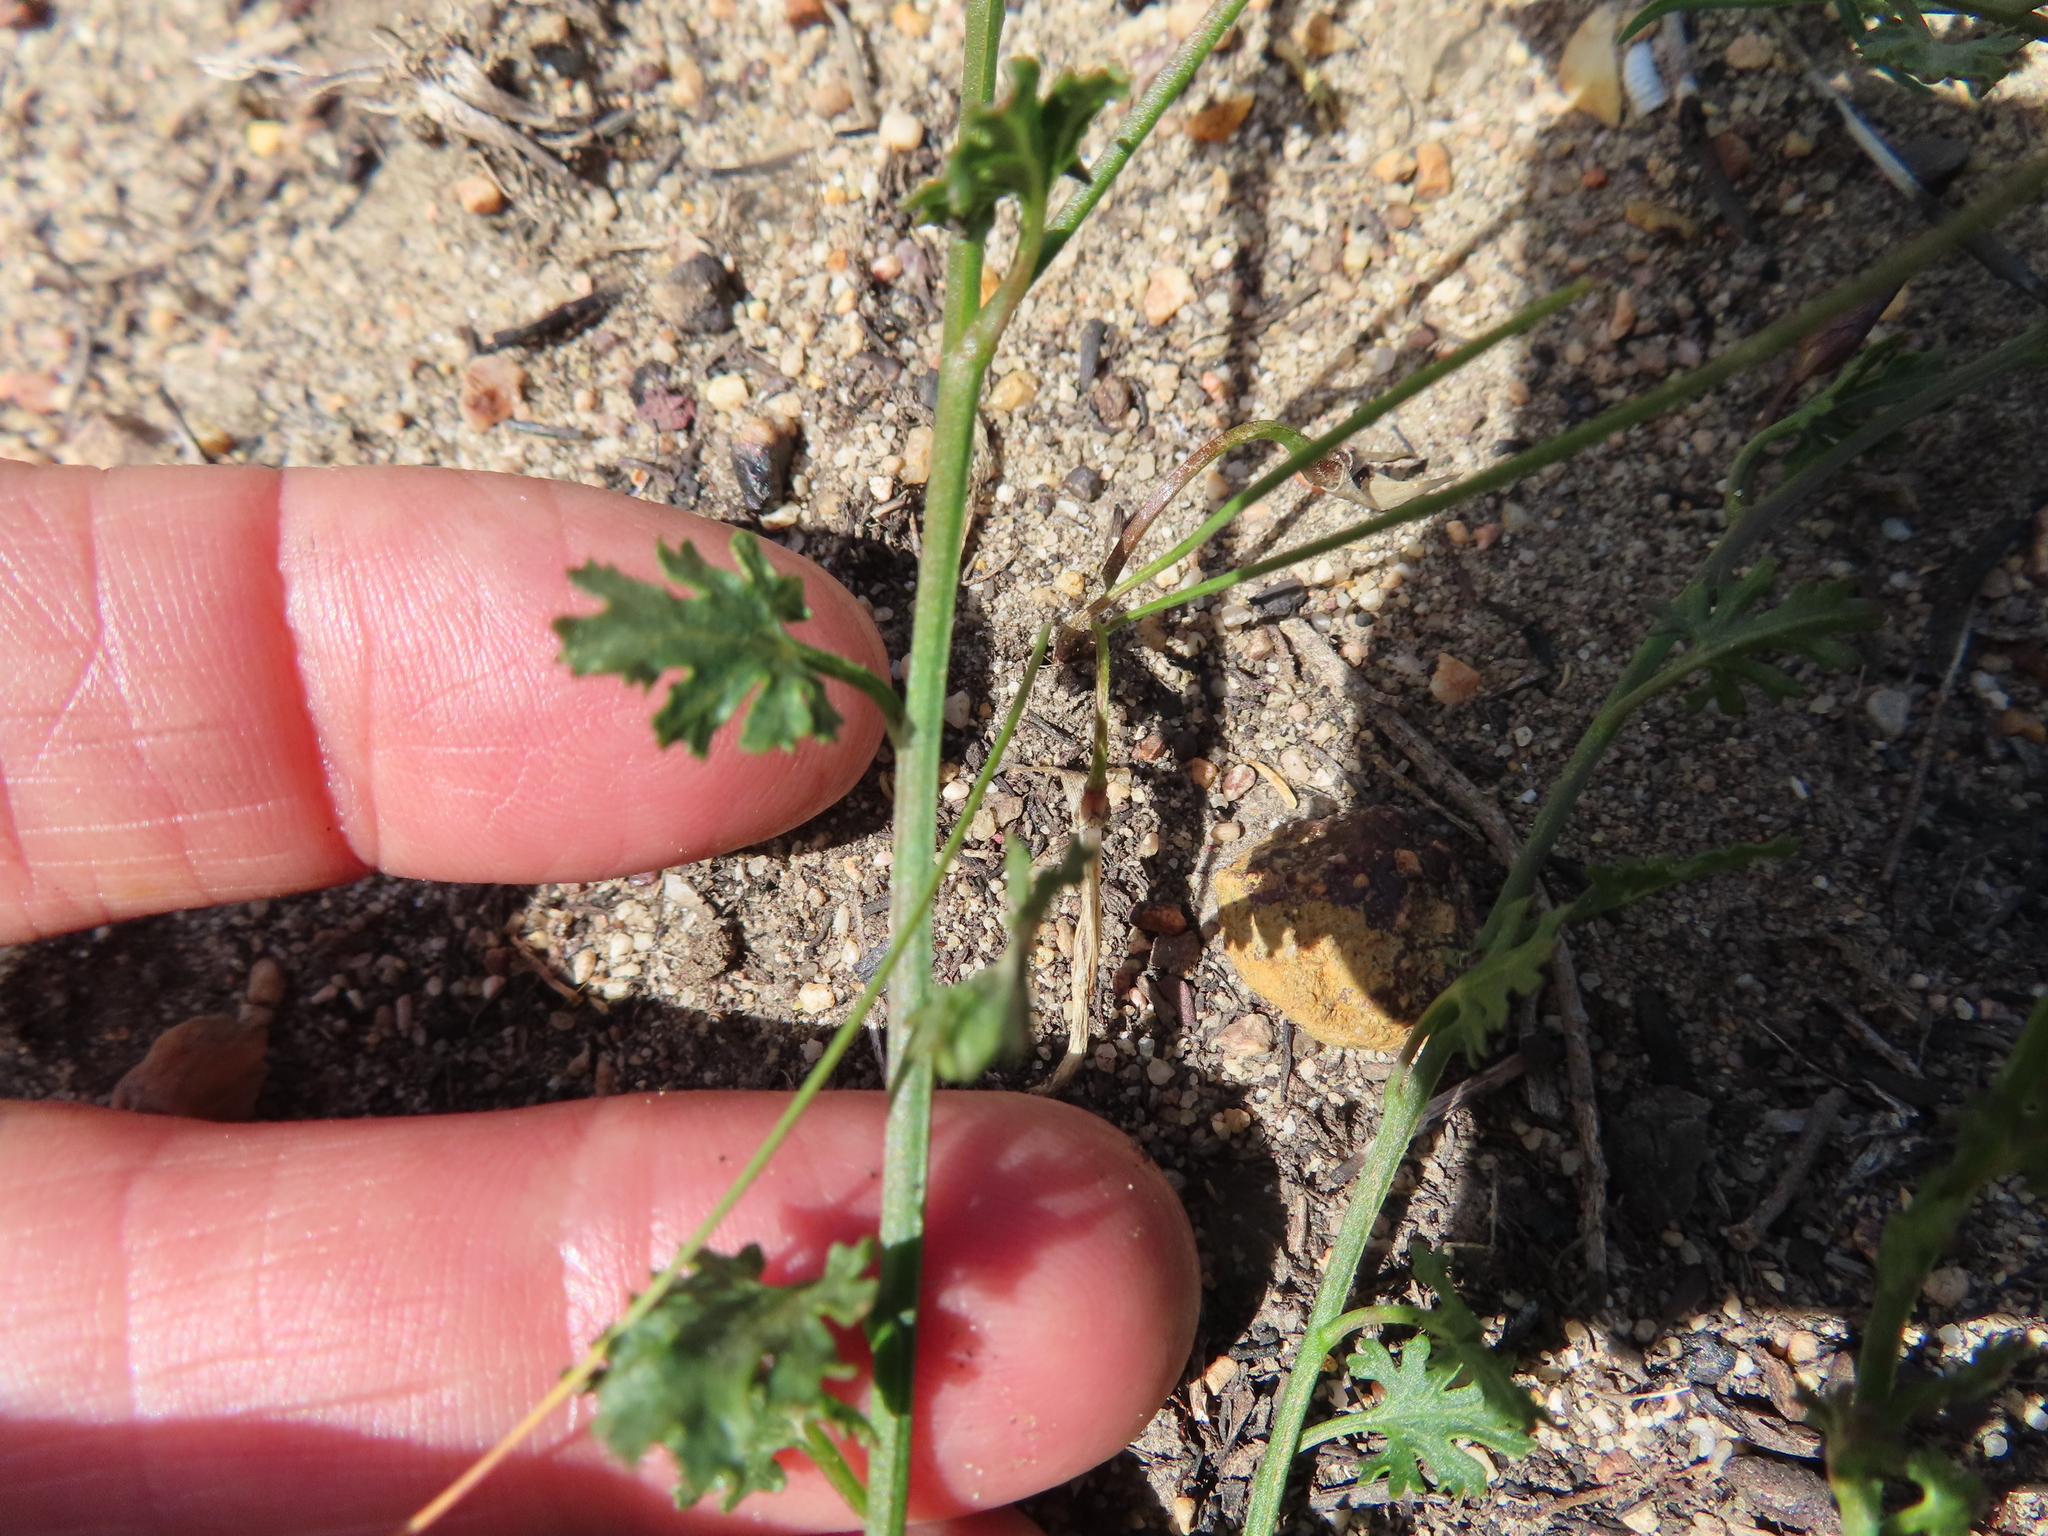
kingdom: Plantae
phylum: Tracheophyta
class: Magnoliopsida
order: Solanales
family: Convolvulaceae
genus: Convolvulus
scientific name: Convolvulus arvensis
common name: Field bindweed
